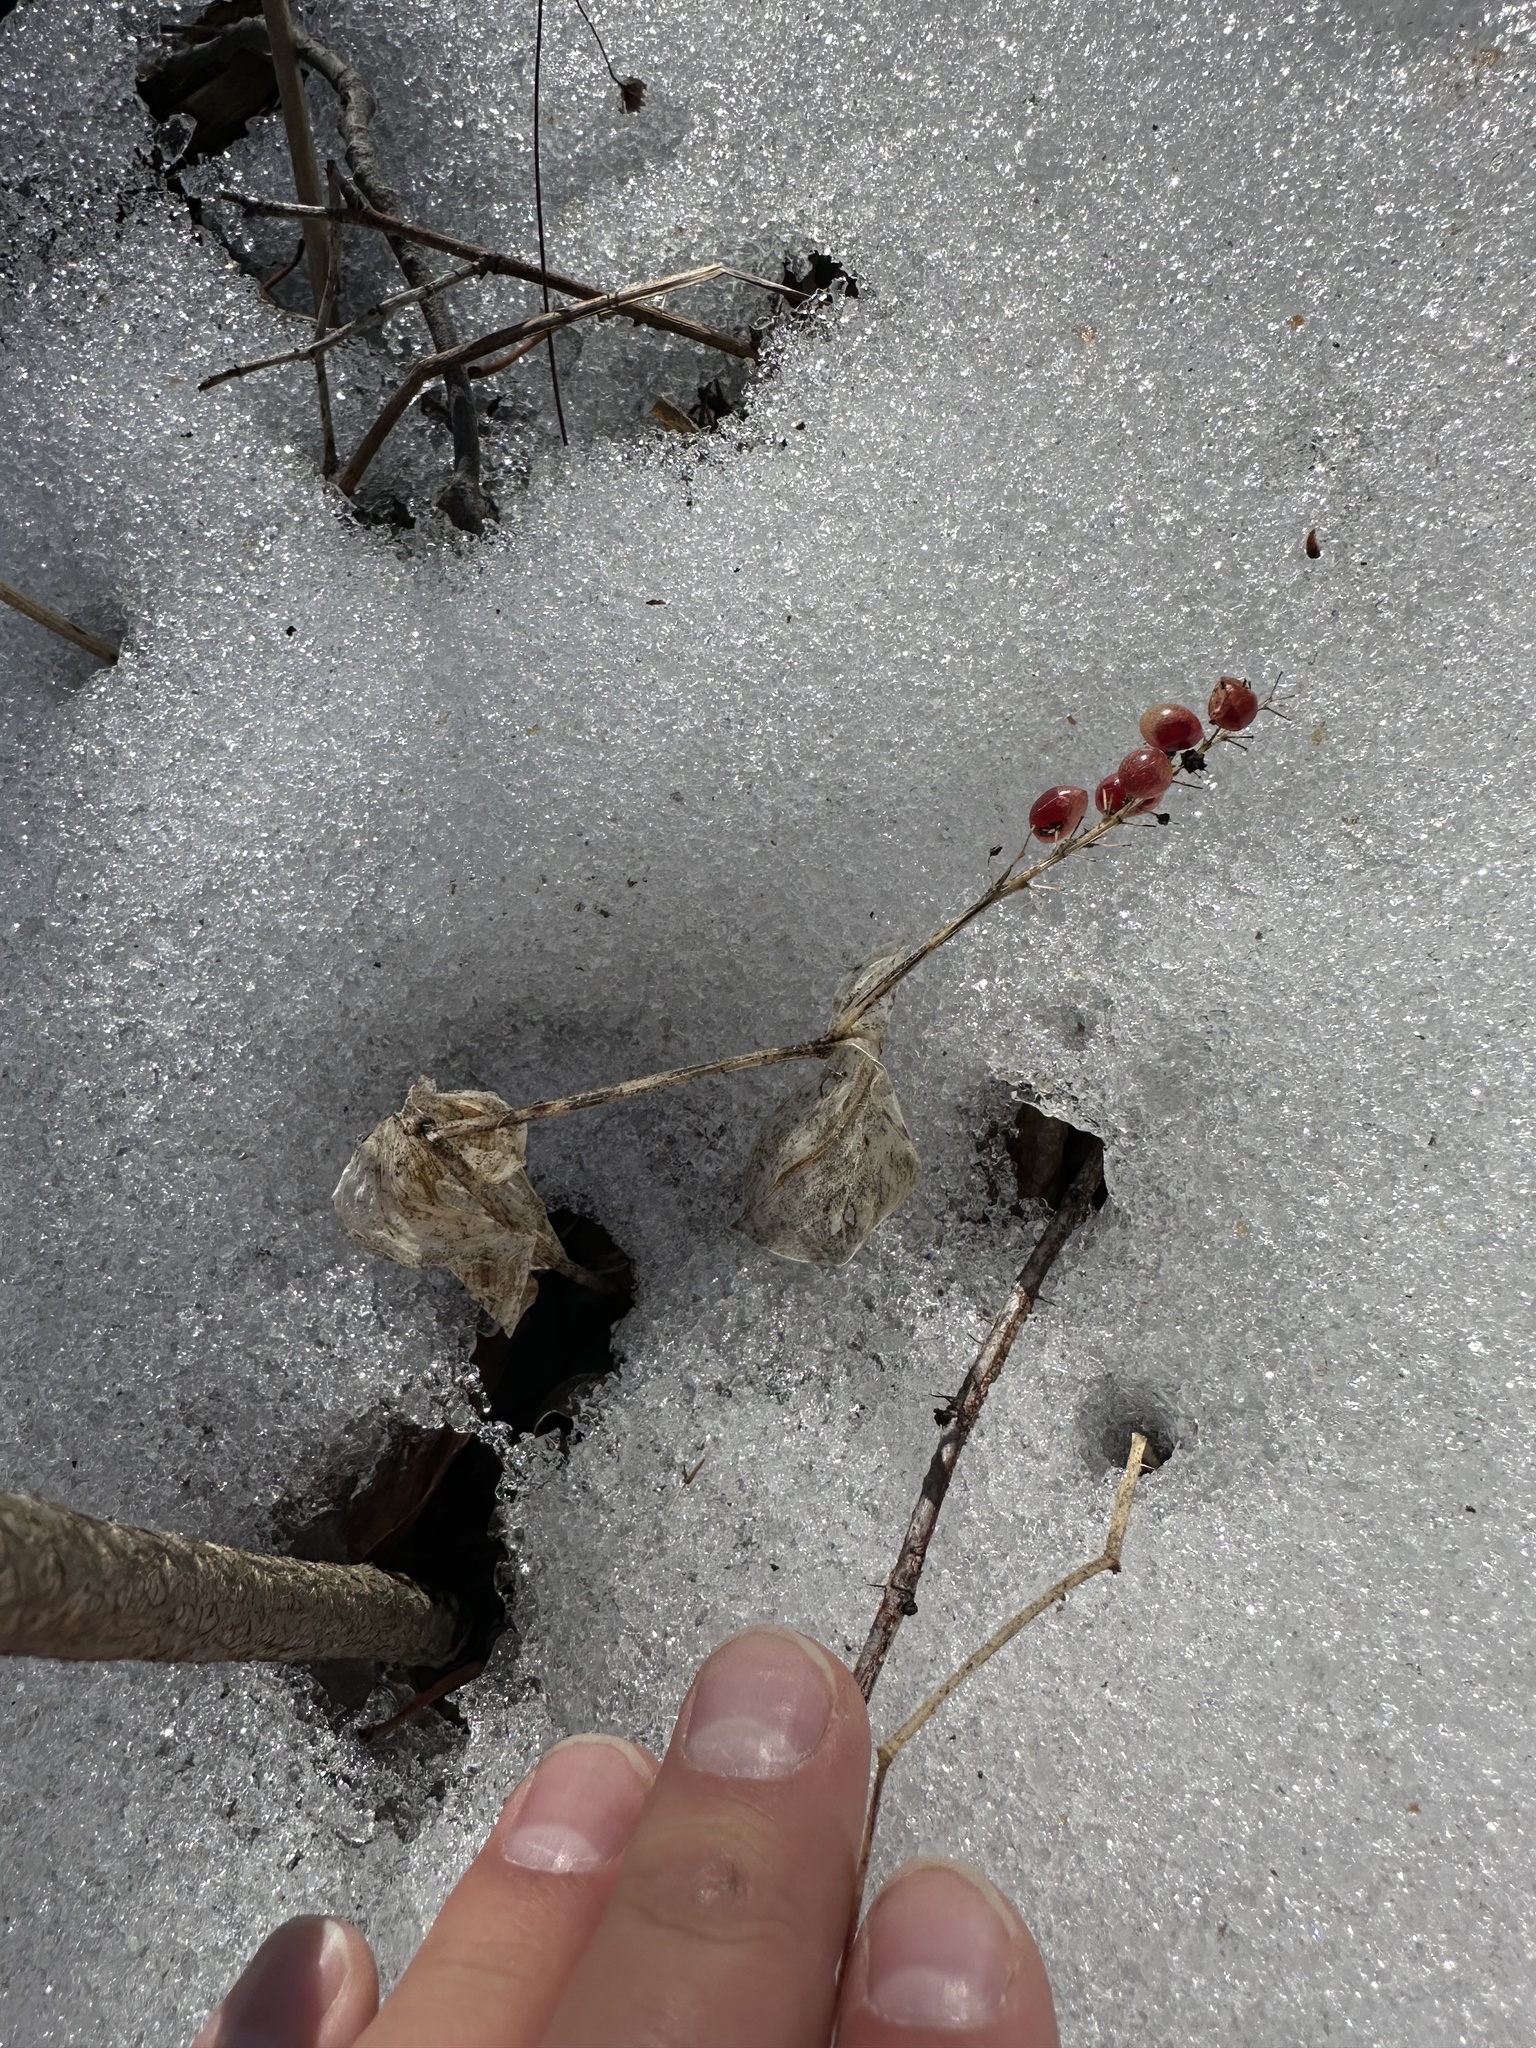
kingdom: Plantae
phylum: Tracheophyta
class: Liliopsida
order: Asparagales
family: Asparagaceae
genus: Maianthemum
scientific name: Maianthemum canadense
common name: False lily-of-the-valley
